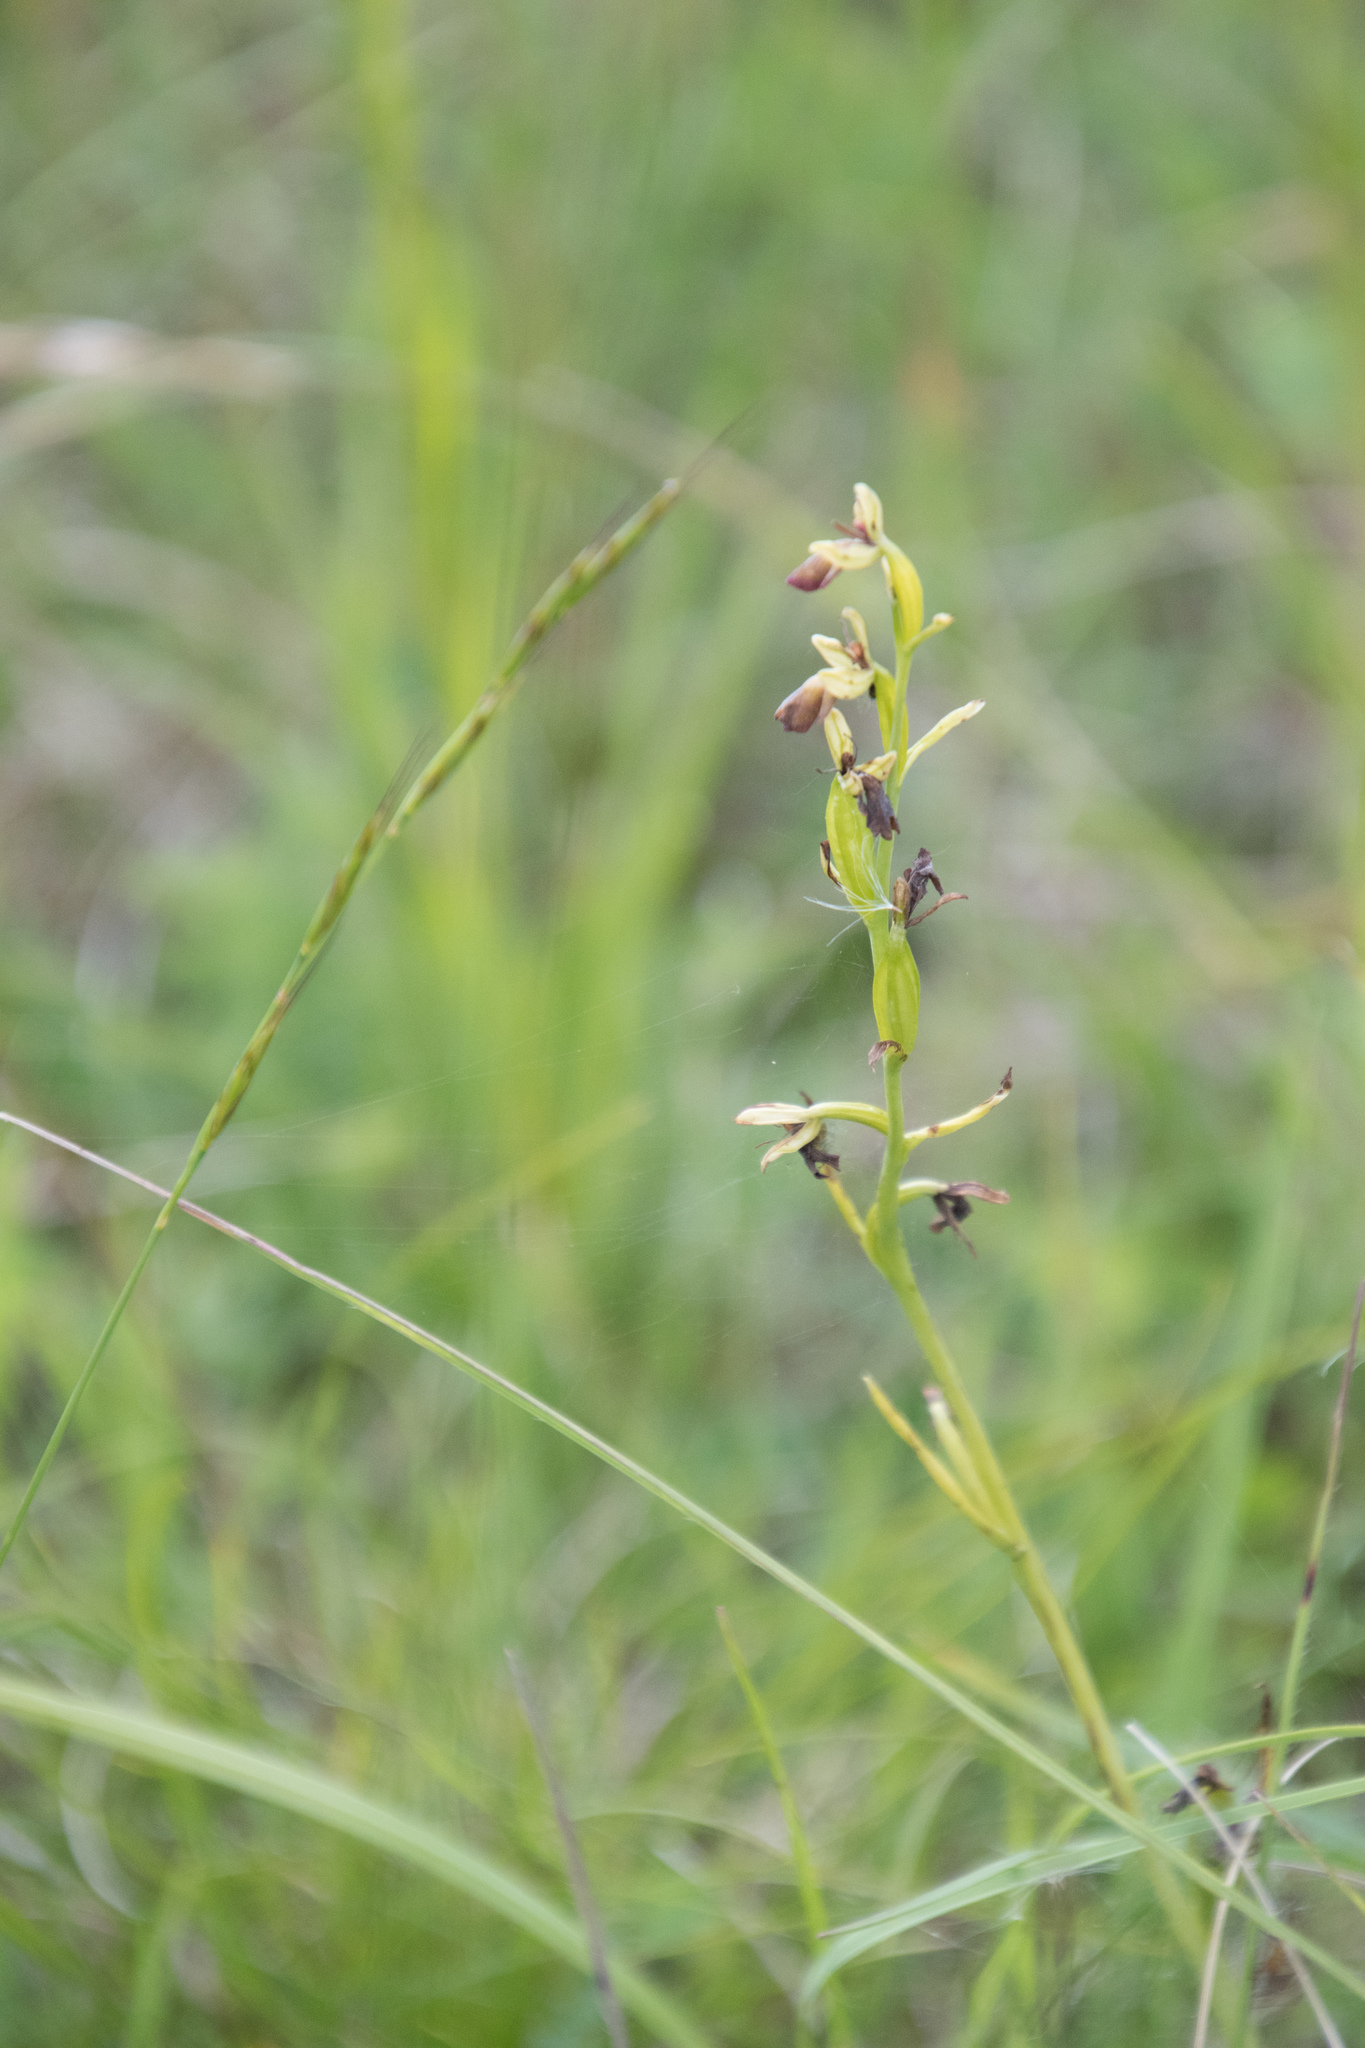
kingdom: Plantae
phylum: Tracheophyta
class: Liliopsida
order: Asparagales
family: Orchidaceae
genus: Ophrys
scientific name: Ophrys insectifera
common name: Fly orchid
